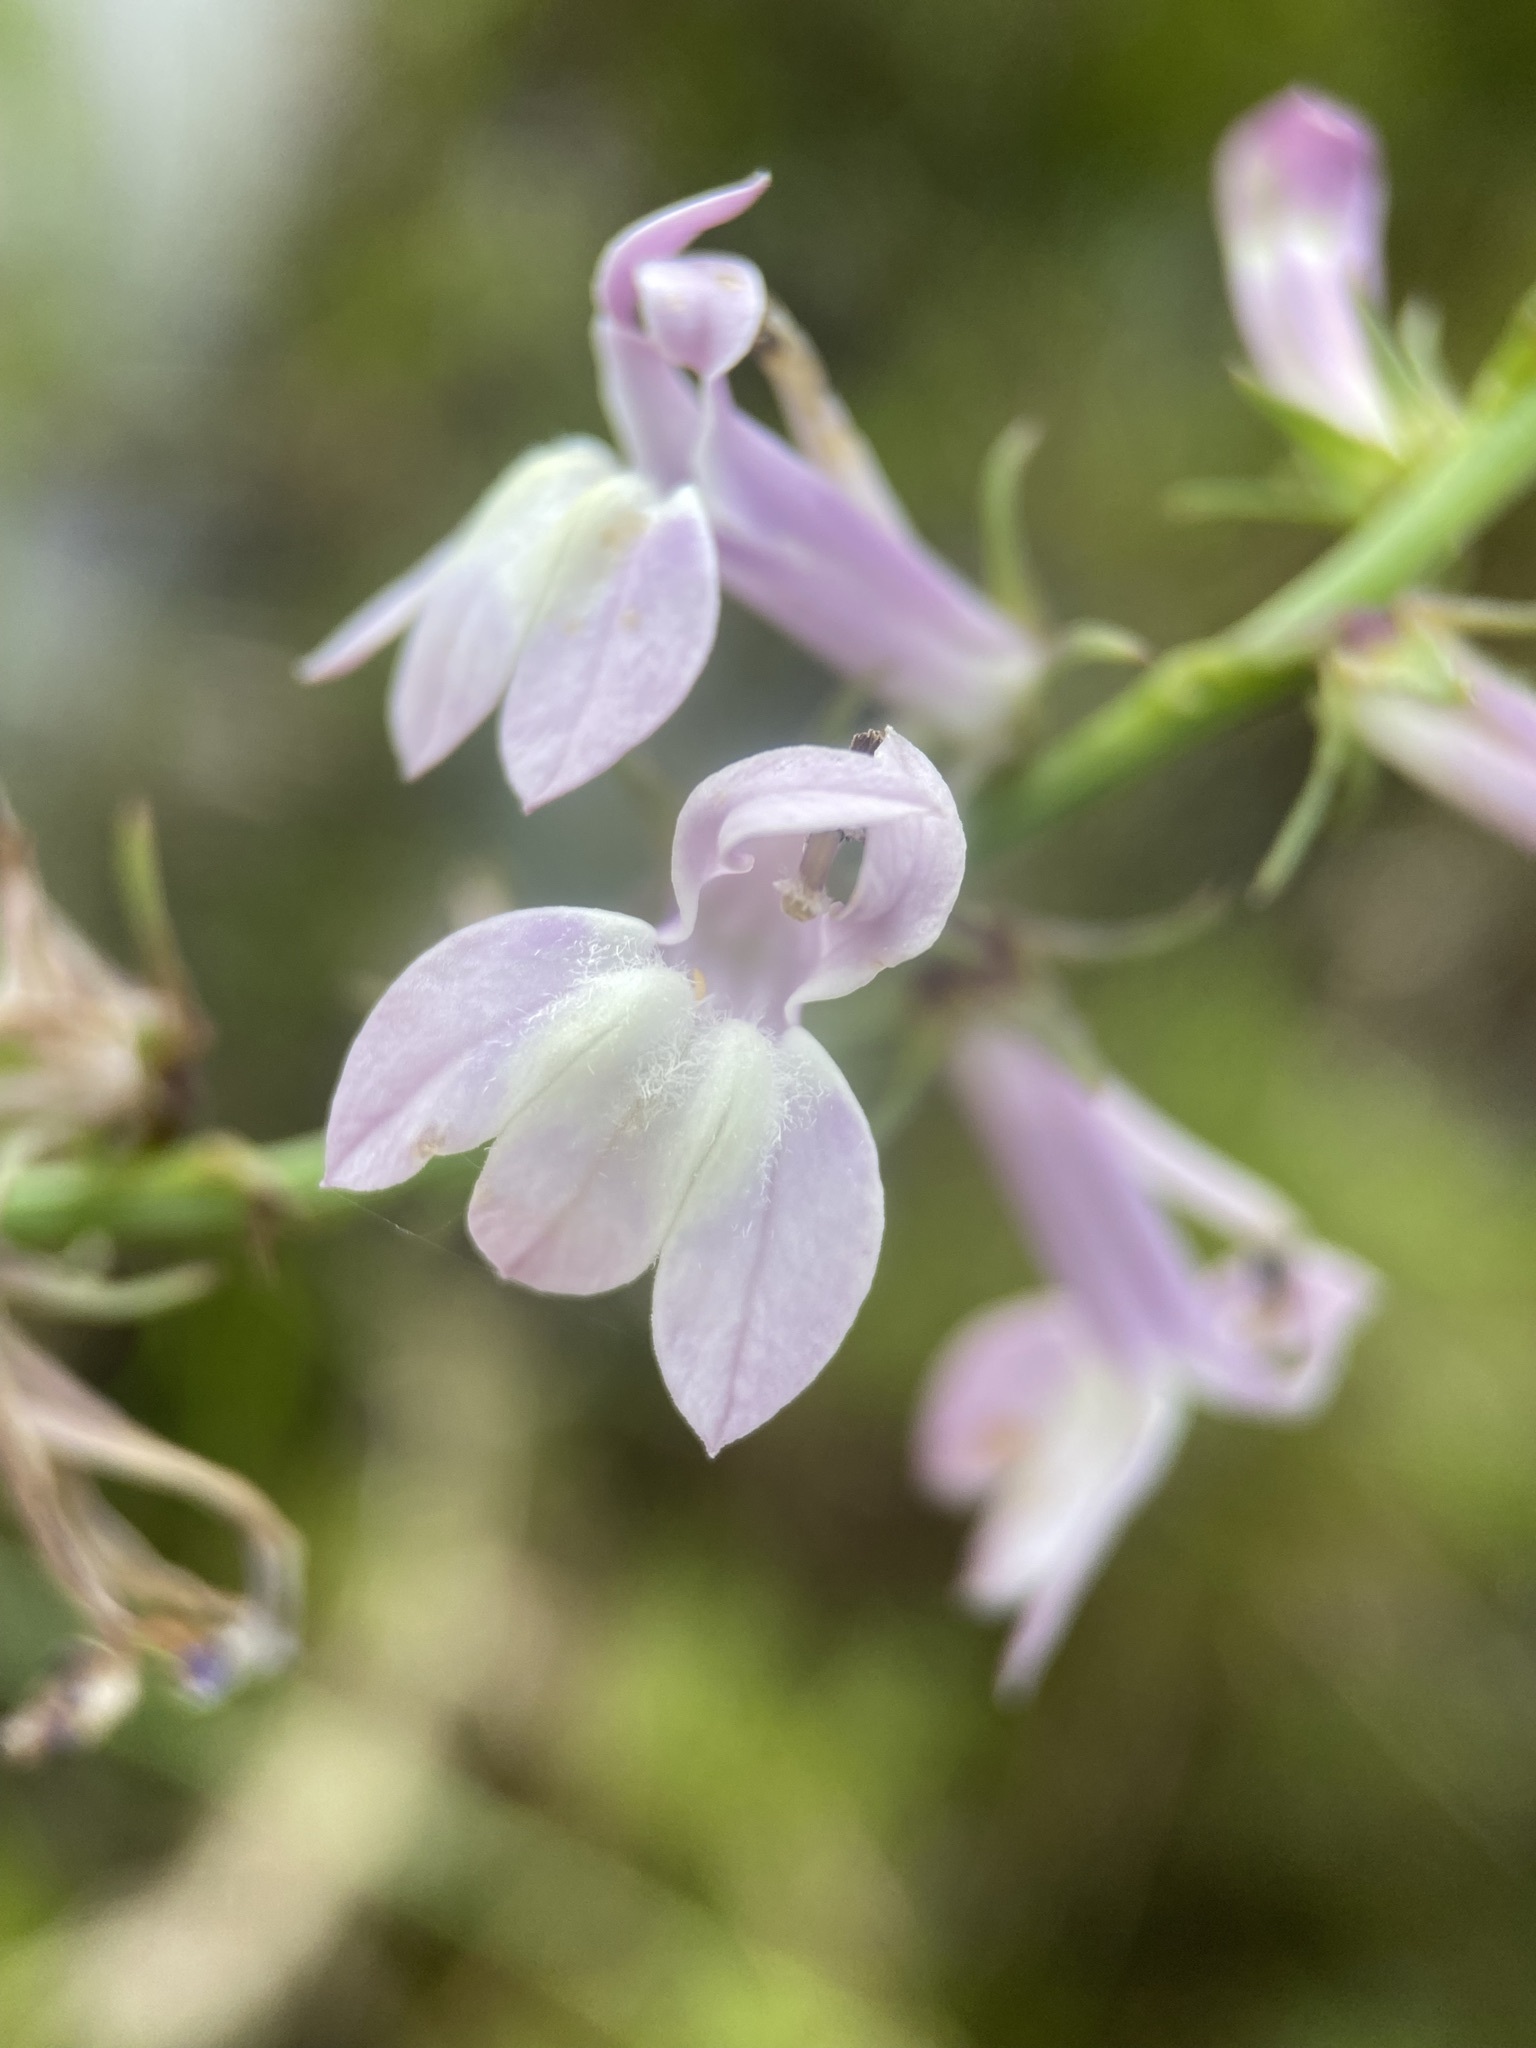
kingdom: Plantae
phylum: Tracheophyta
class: Magnoliopsida
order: Asterales
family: Campanulaceae
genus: Lobelia
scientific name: Lobelia floridana
